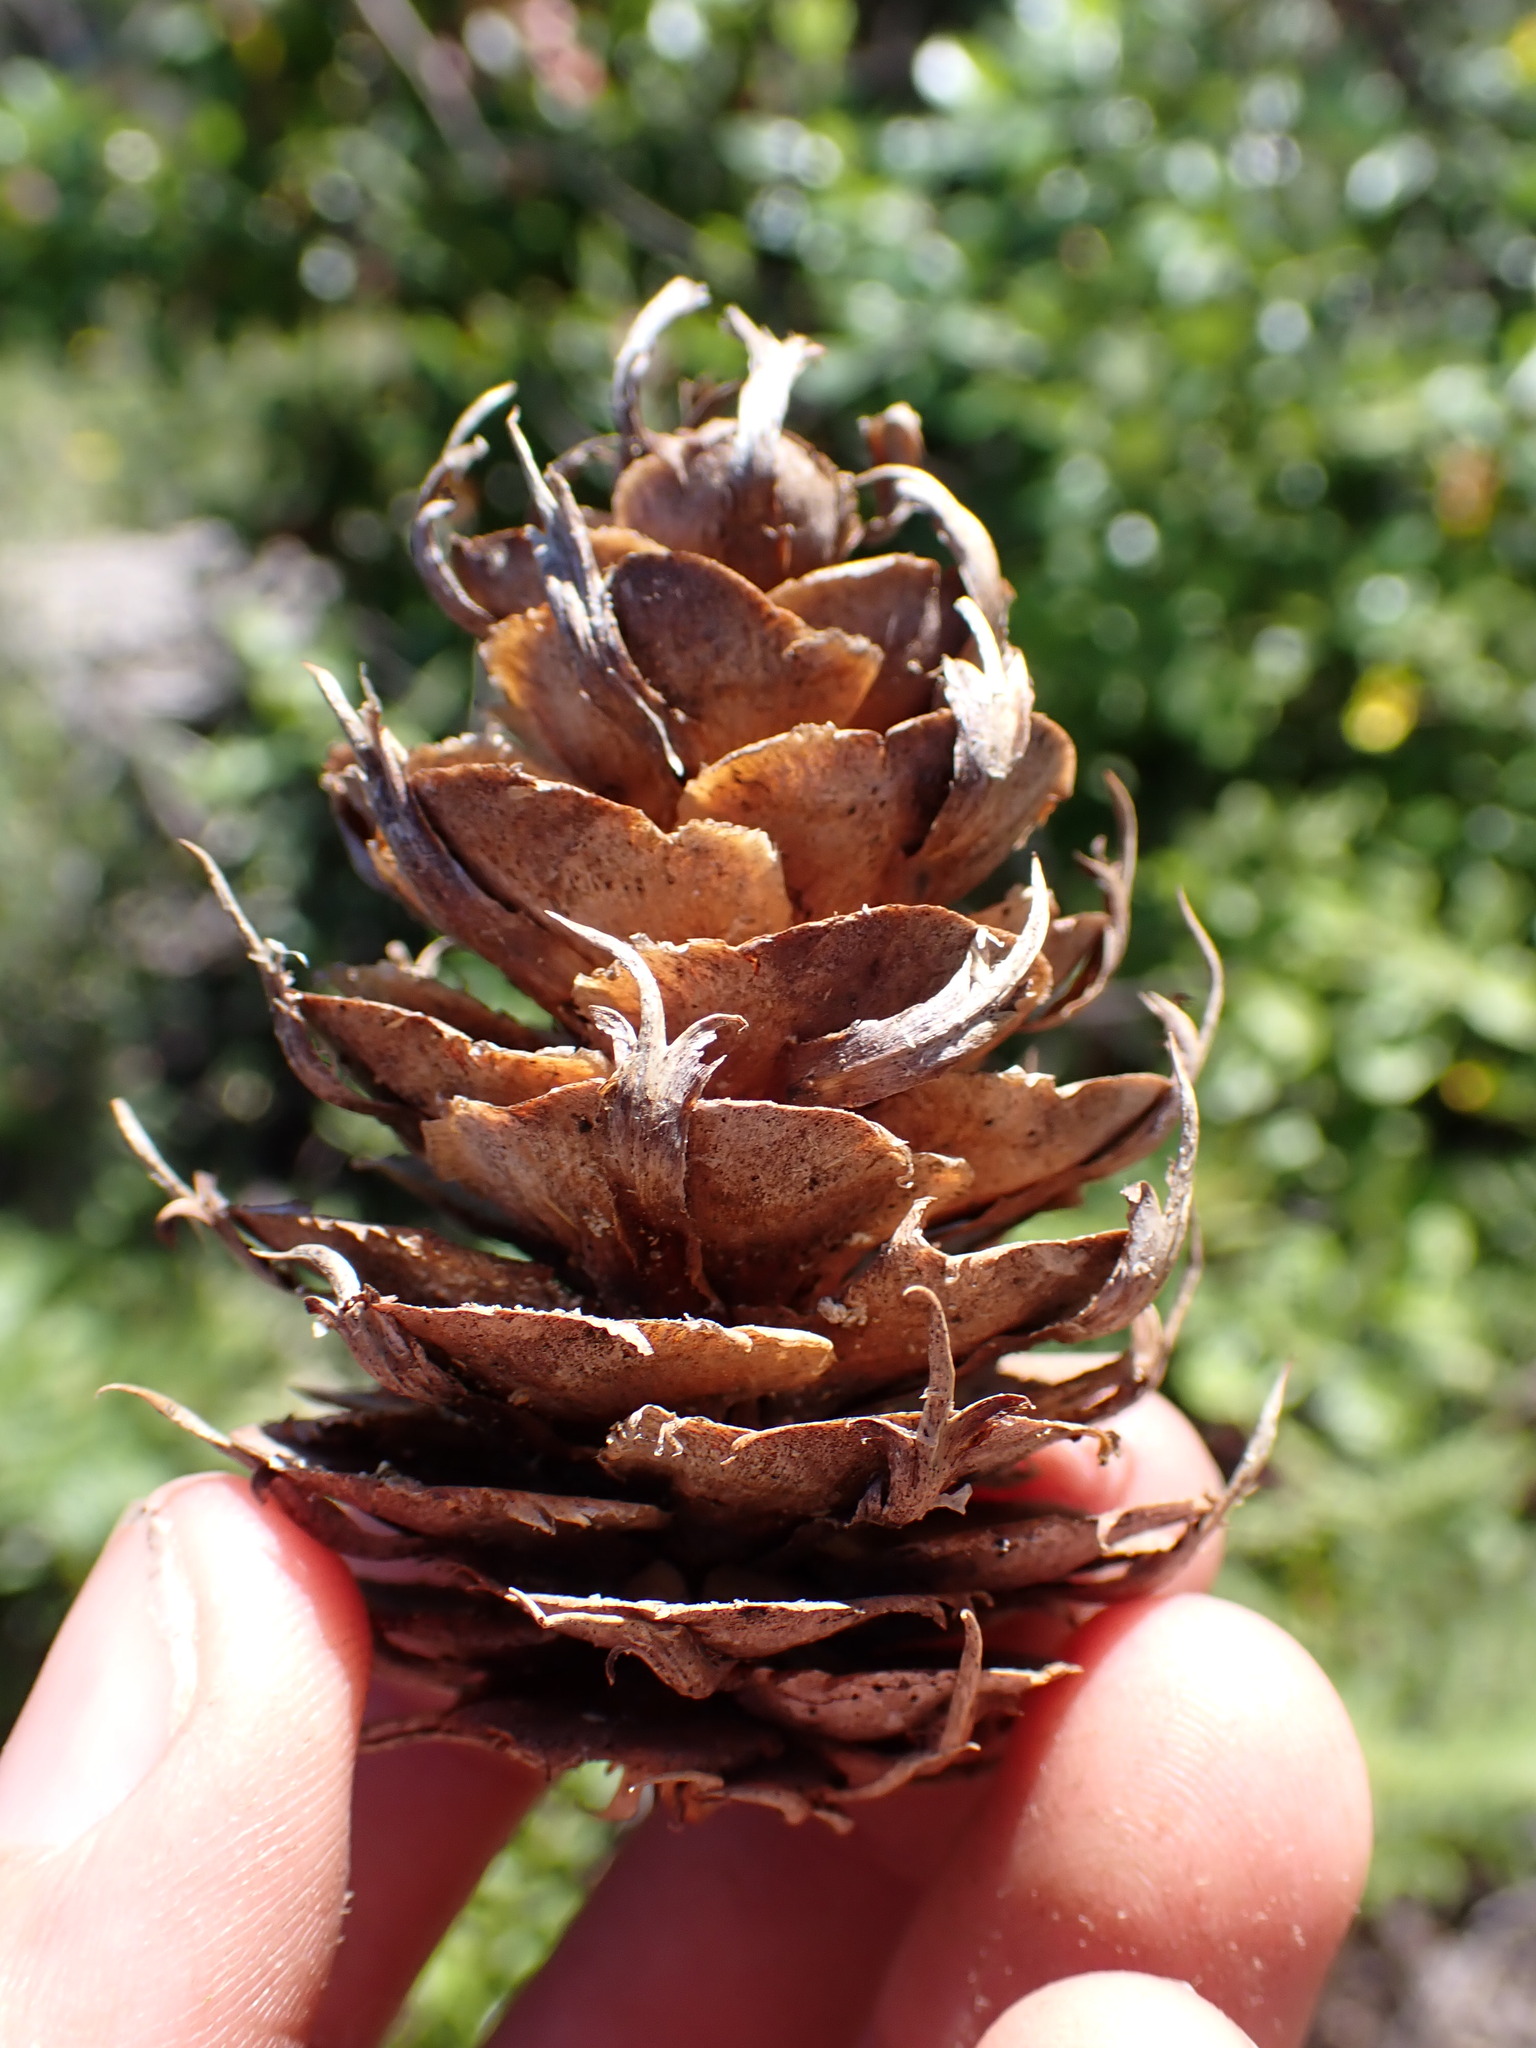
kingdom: Plantae
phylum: Tracheophyta
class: Pinopsida
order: Pinales
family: Pinaceae
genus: Pseudotsuga
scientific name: Pseudotsuga menziesii
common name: Douglas fir
